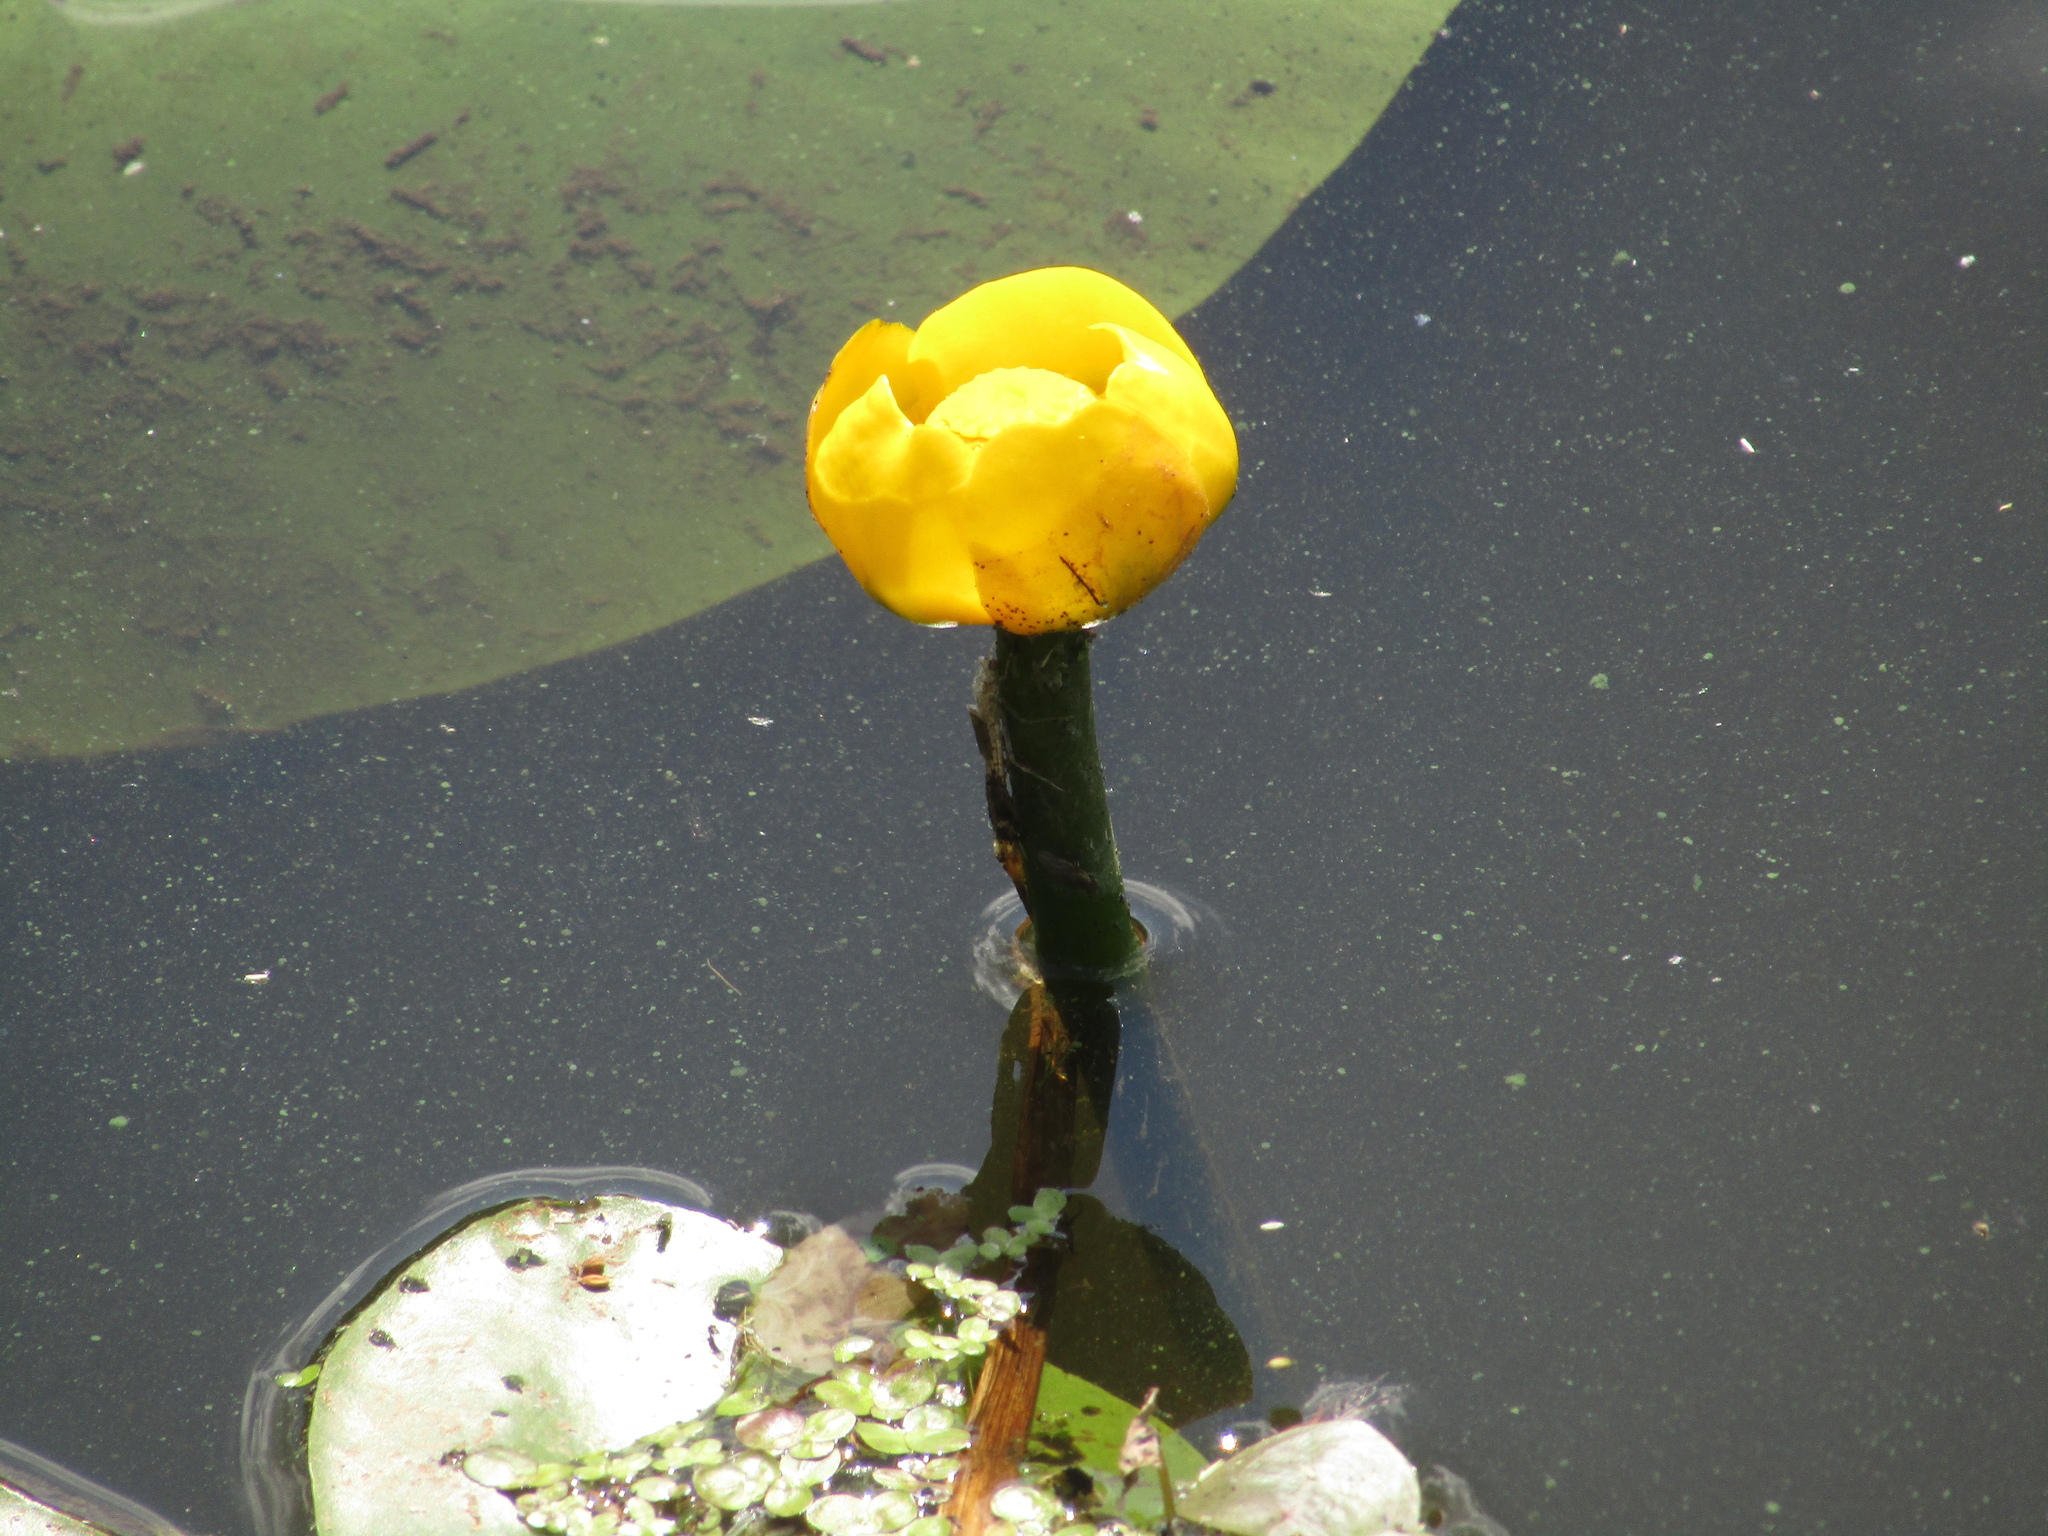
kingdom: Plantae
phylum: Tracheophyta
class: Magnoliopsida
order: Nymphaeales
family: Nymphaeaceae
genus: Nuphar
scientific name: Nuphar lutea
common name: Yellow water-lily
